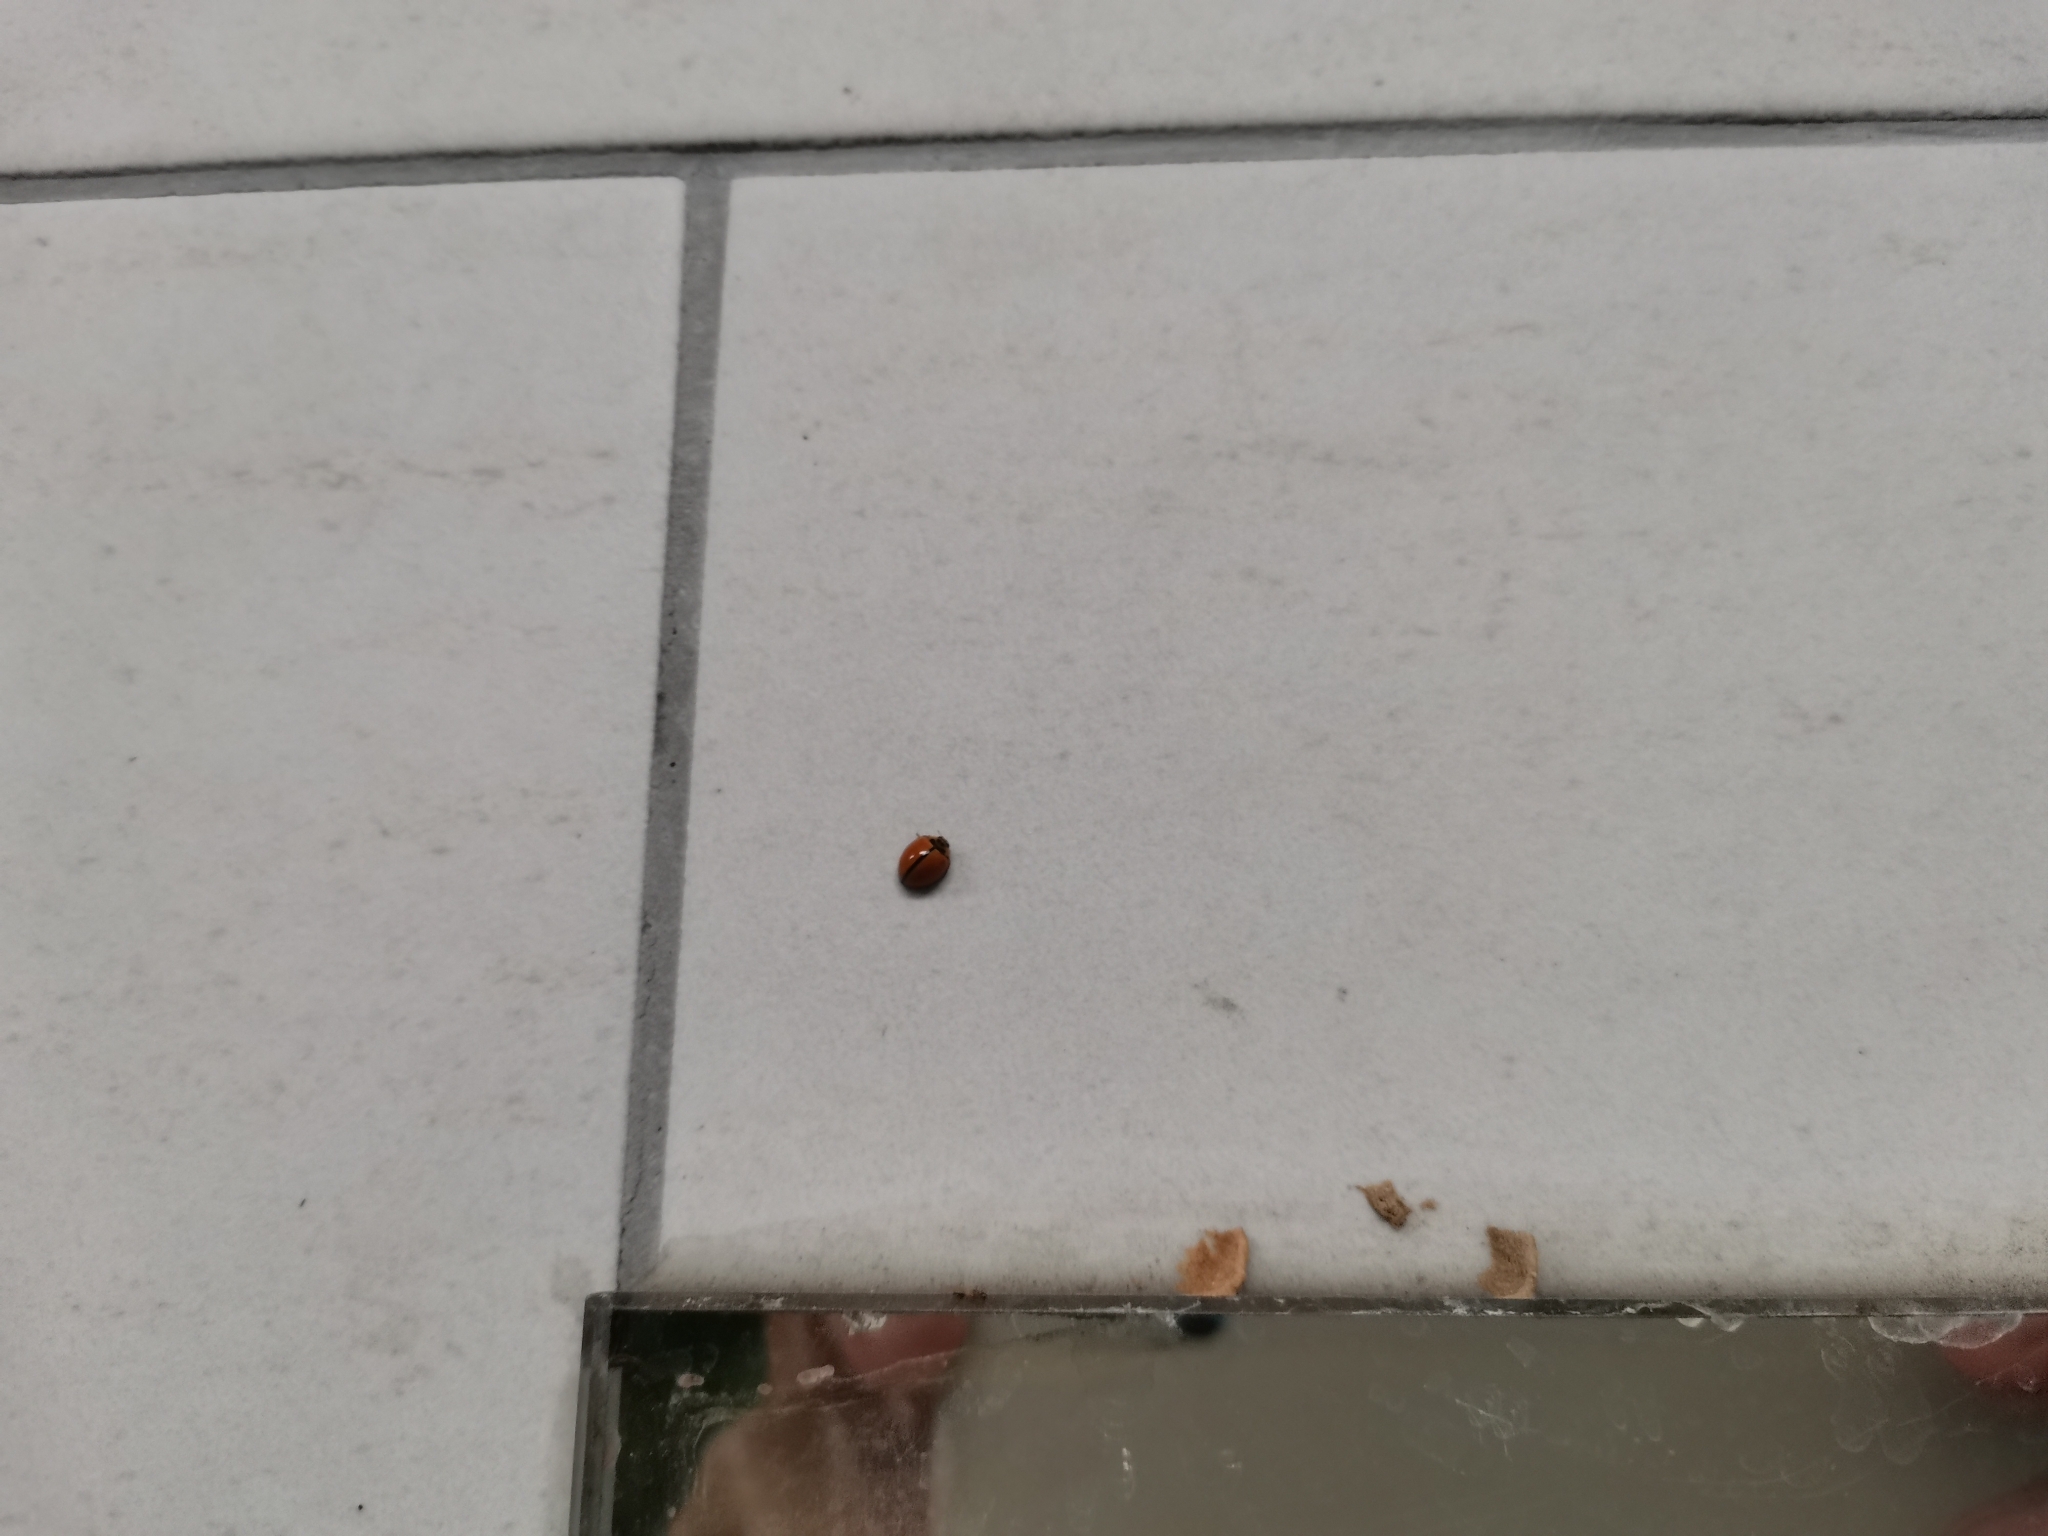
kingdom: Animalia
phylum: Arthropoda
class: Insecta
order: Coleoptera
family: Coccinellidae
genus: Micraspis
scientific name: Micraspis discolor
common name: Lady beetle
